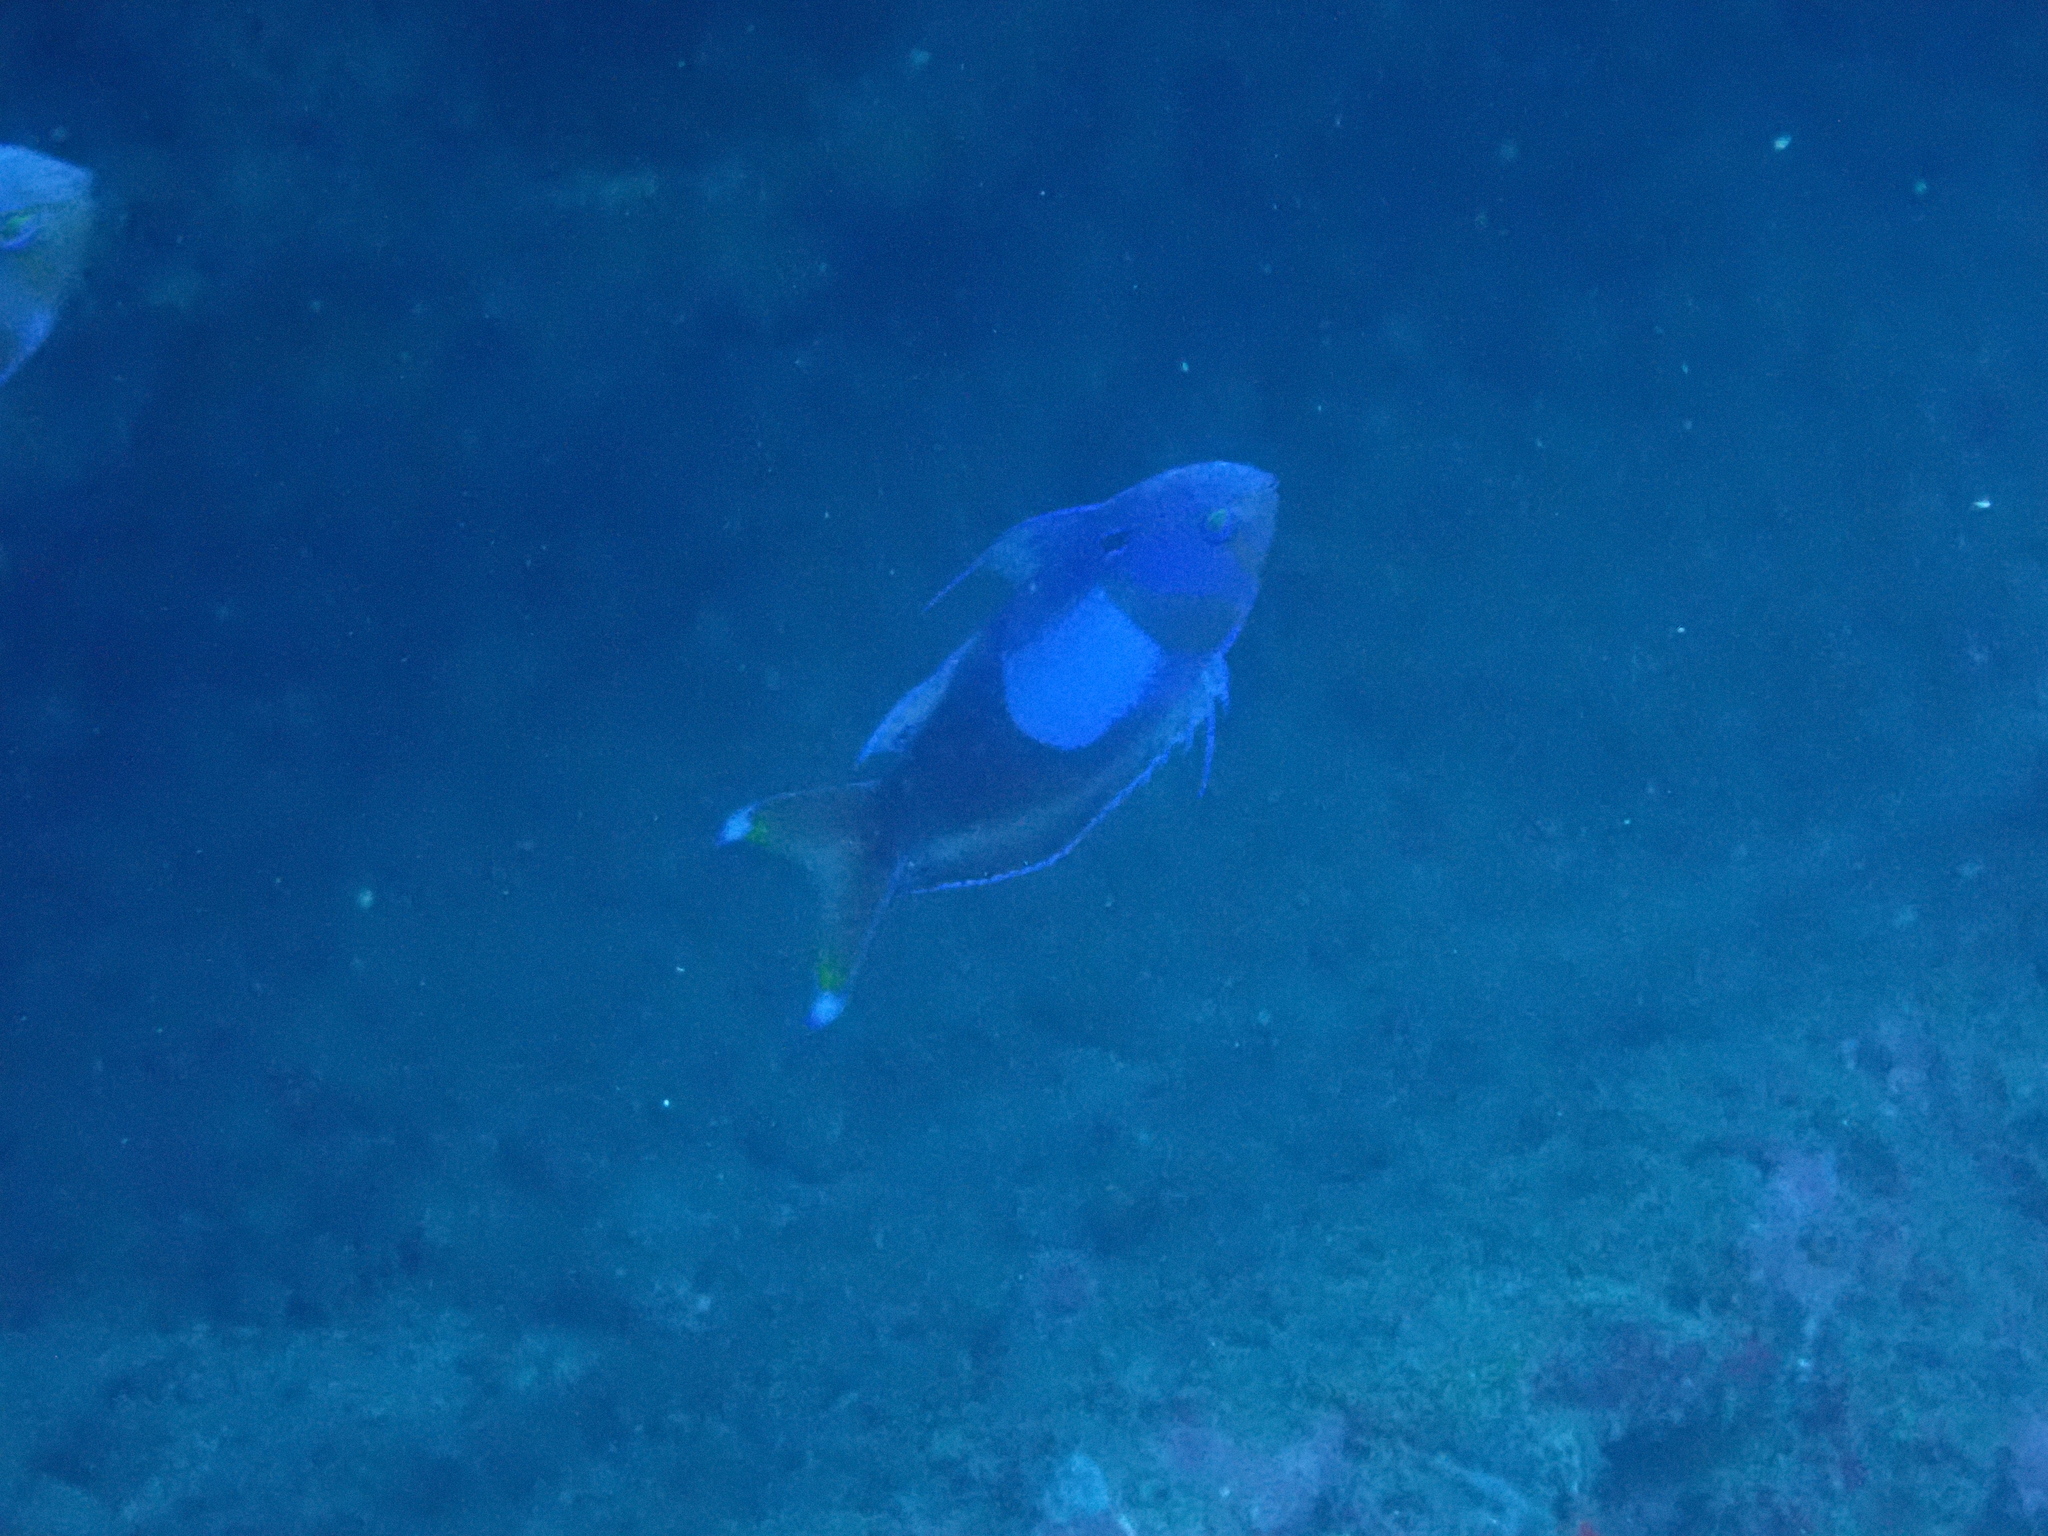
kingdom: Animalia
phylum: Chordata
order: Perciformes
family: Serranidae
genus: Pseudanthias
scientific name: Pseudanthias pleurotaenia
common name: Mirror basslet
